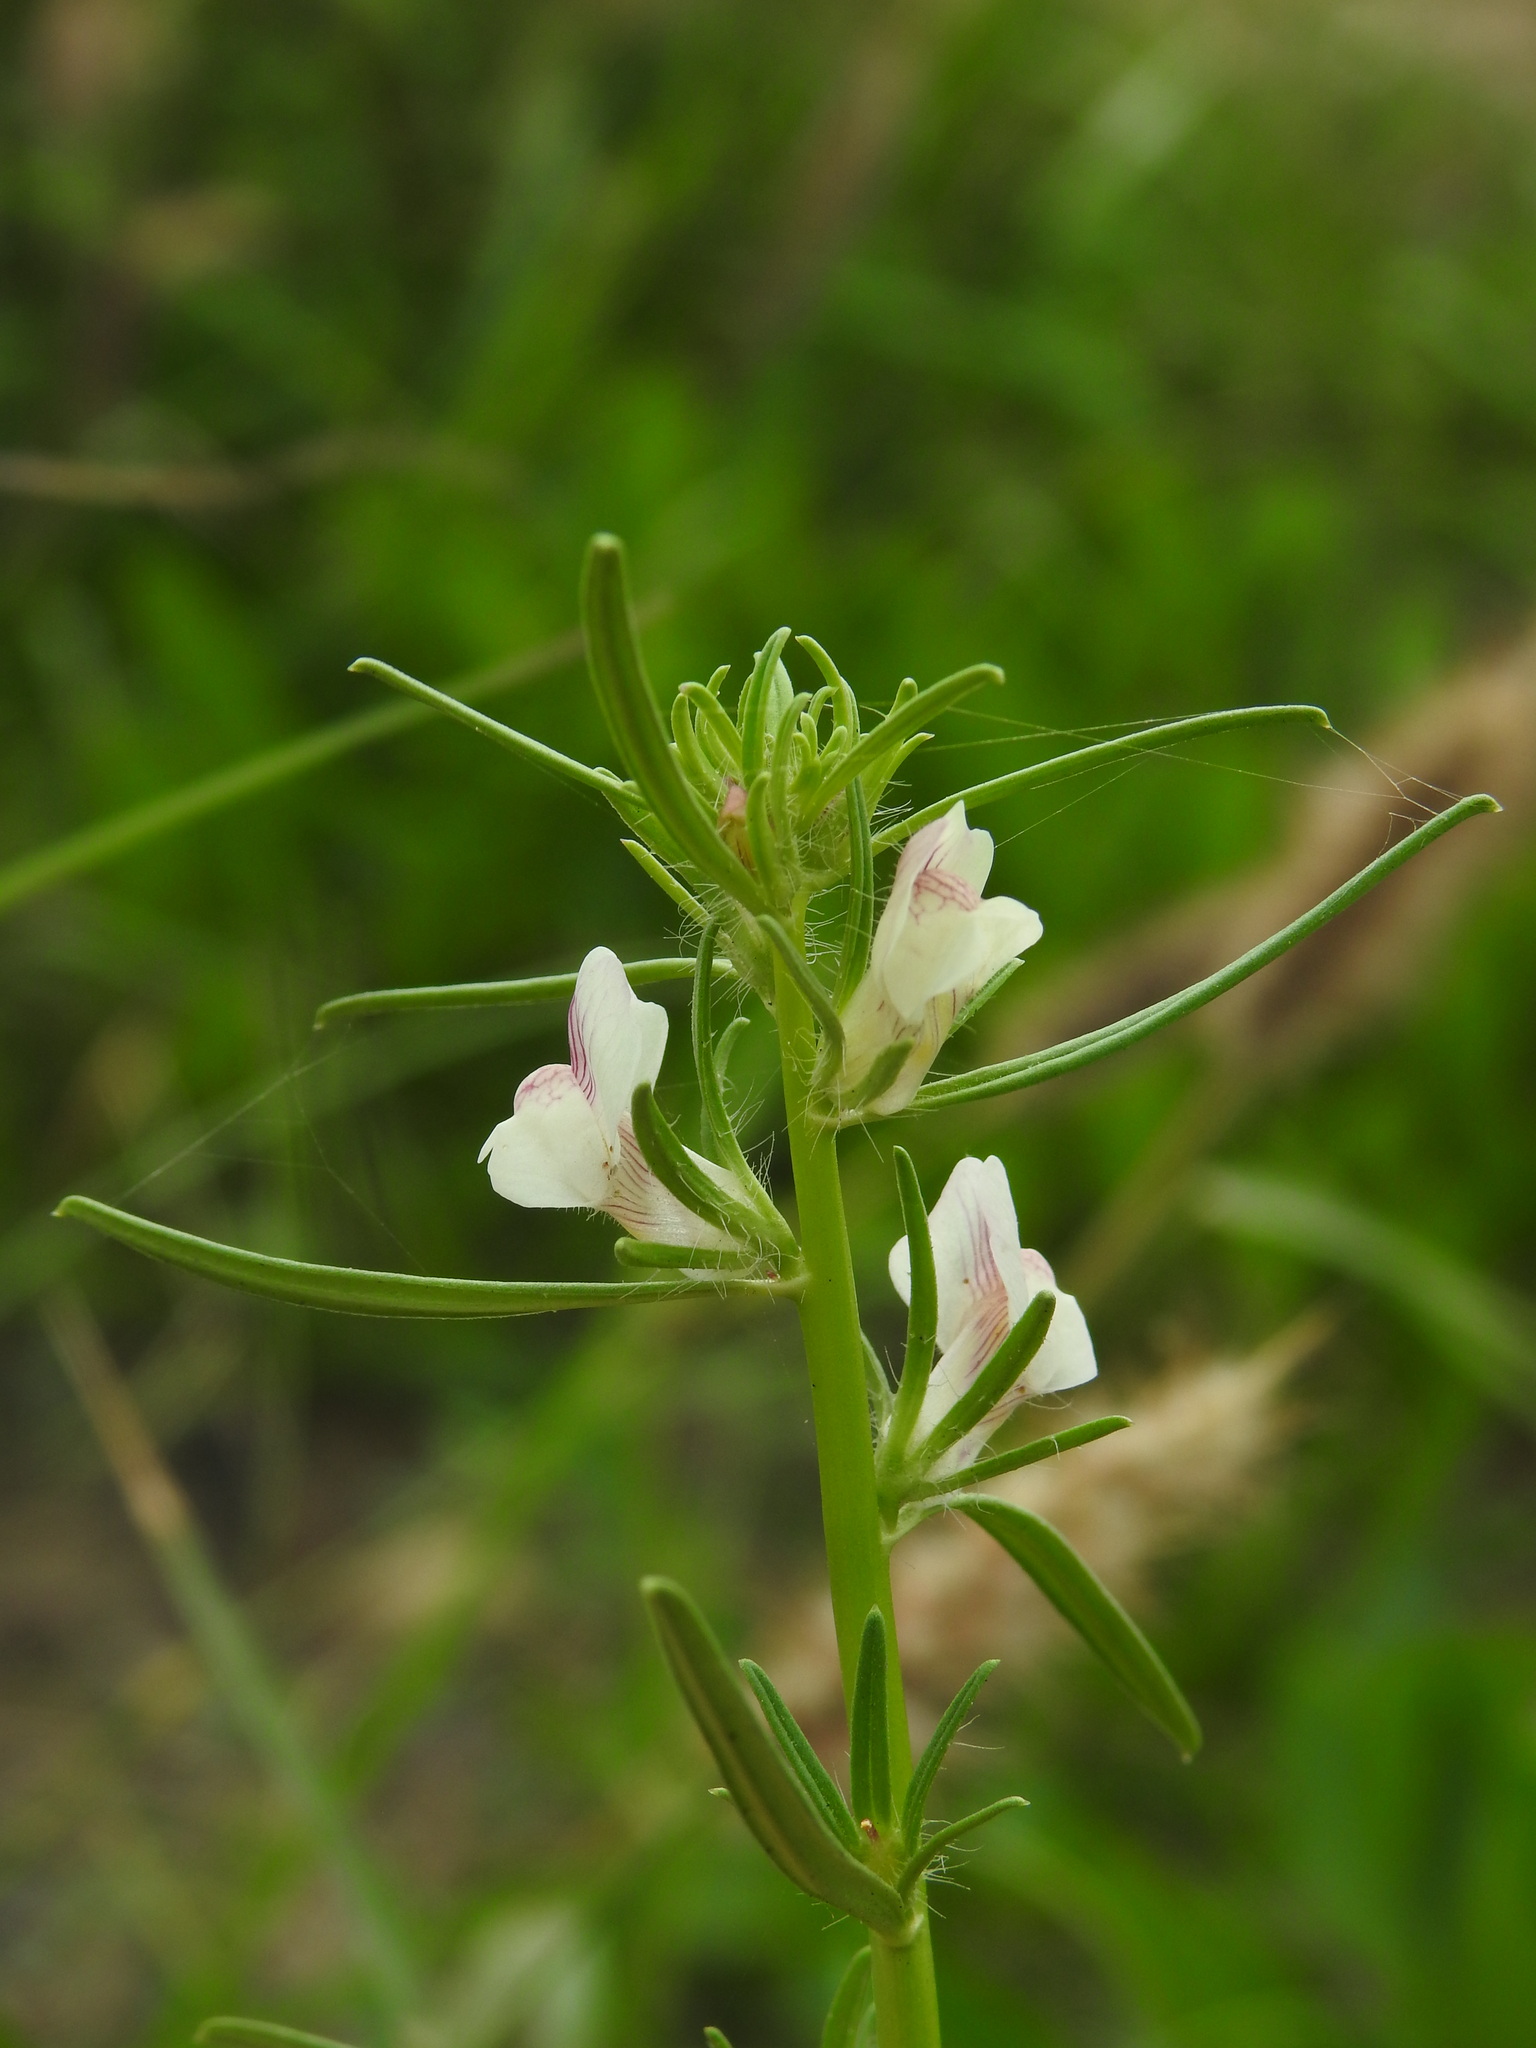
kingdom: Plantae
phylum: Tracheophyta
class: Magnoliopsida
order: Lamiales
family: Plantaginaceae
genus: Misopates
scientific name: Misopates calycinum
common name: Pale weasel's-snout
